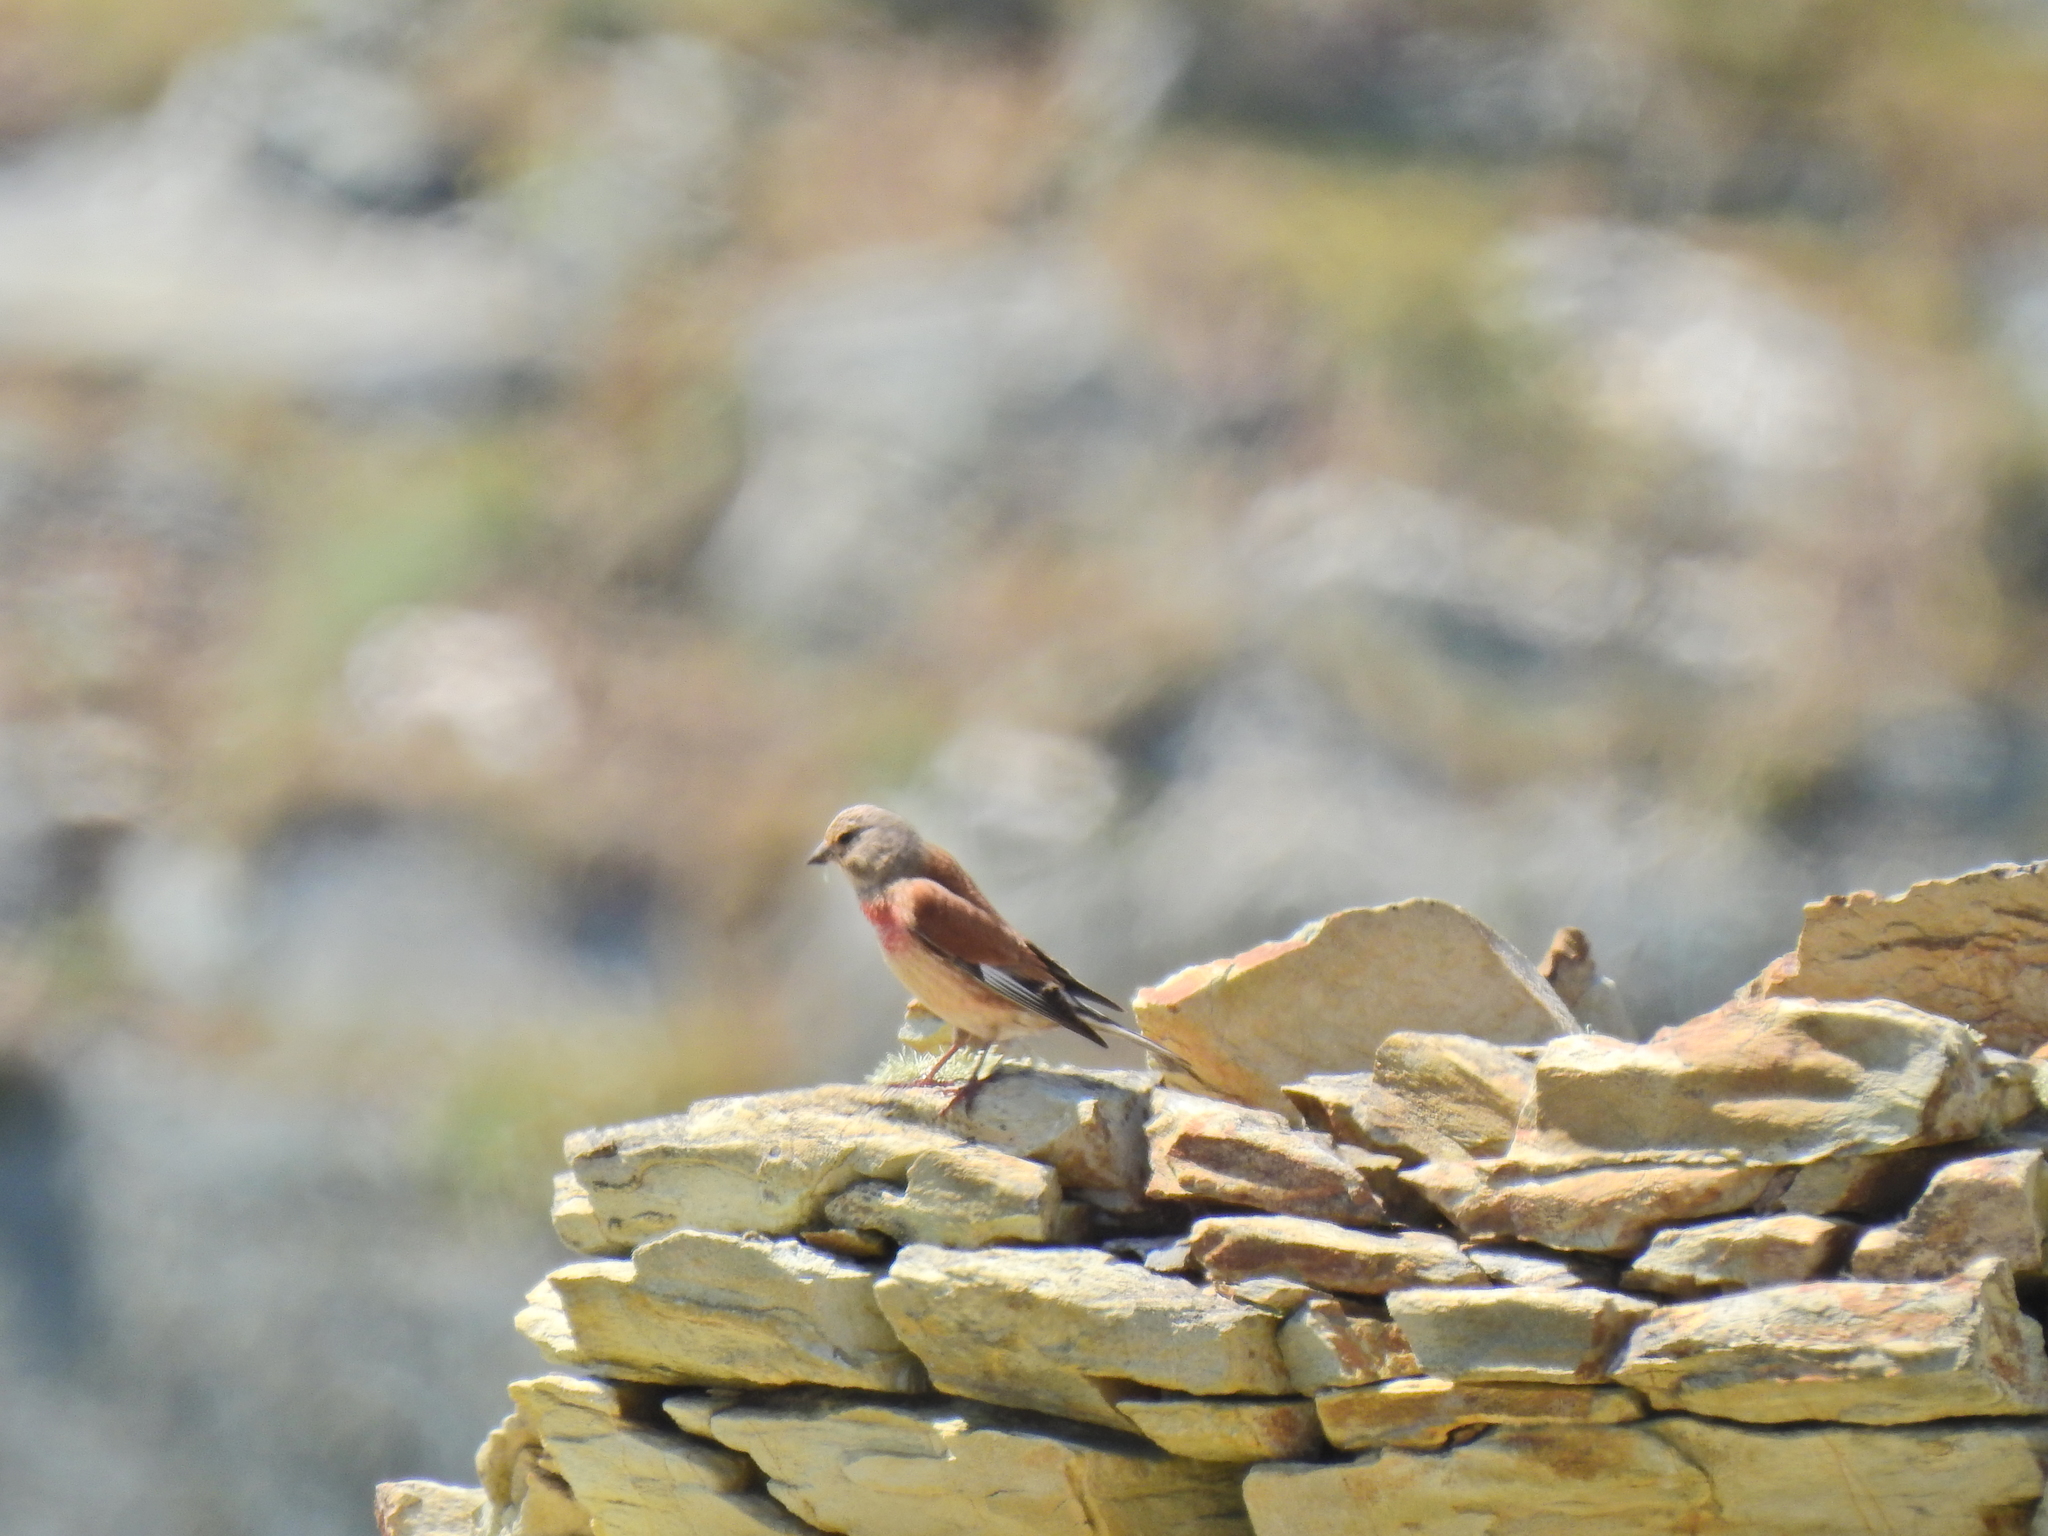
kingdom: Animalia
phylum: Chordata
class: Aves
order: Passeriformes
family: Fringillidae
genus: Linaria
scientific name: Linaria cannabina
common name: Common linnet
